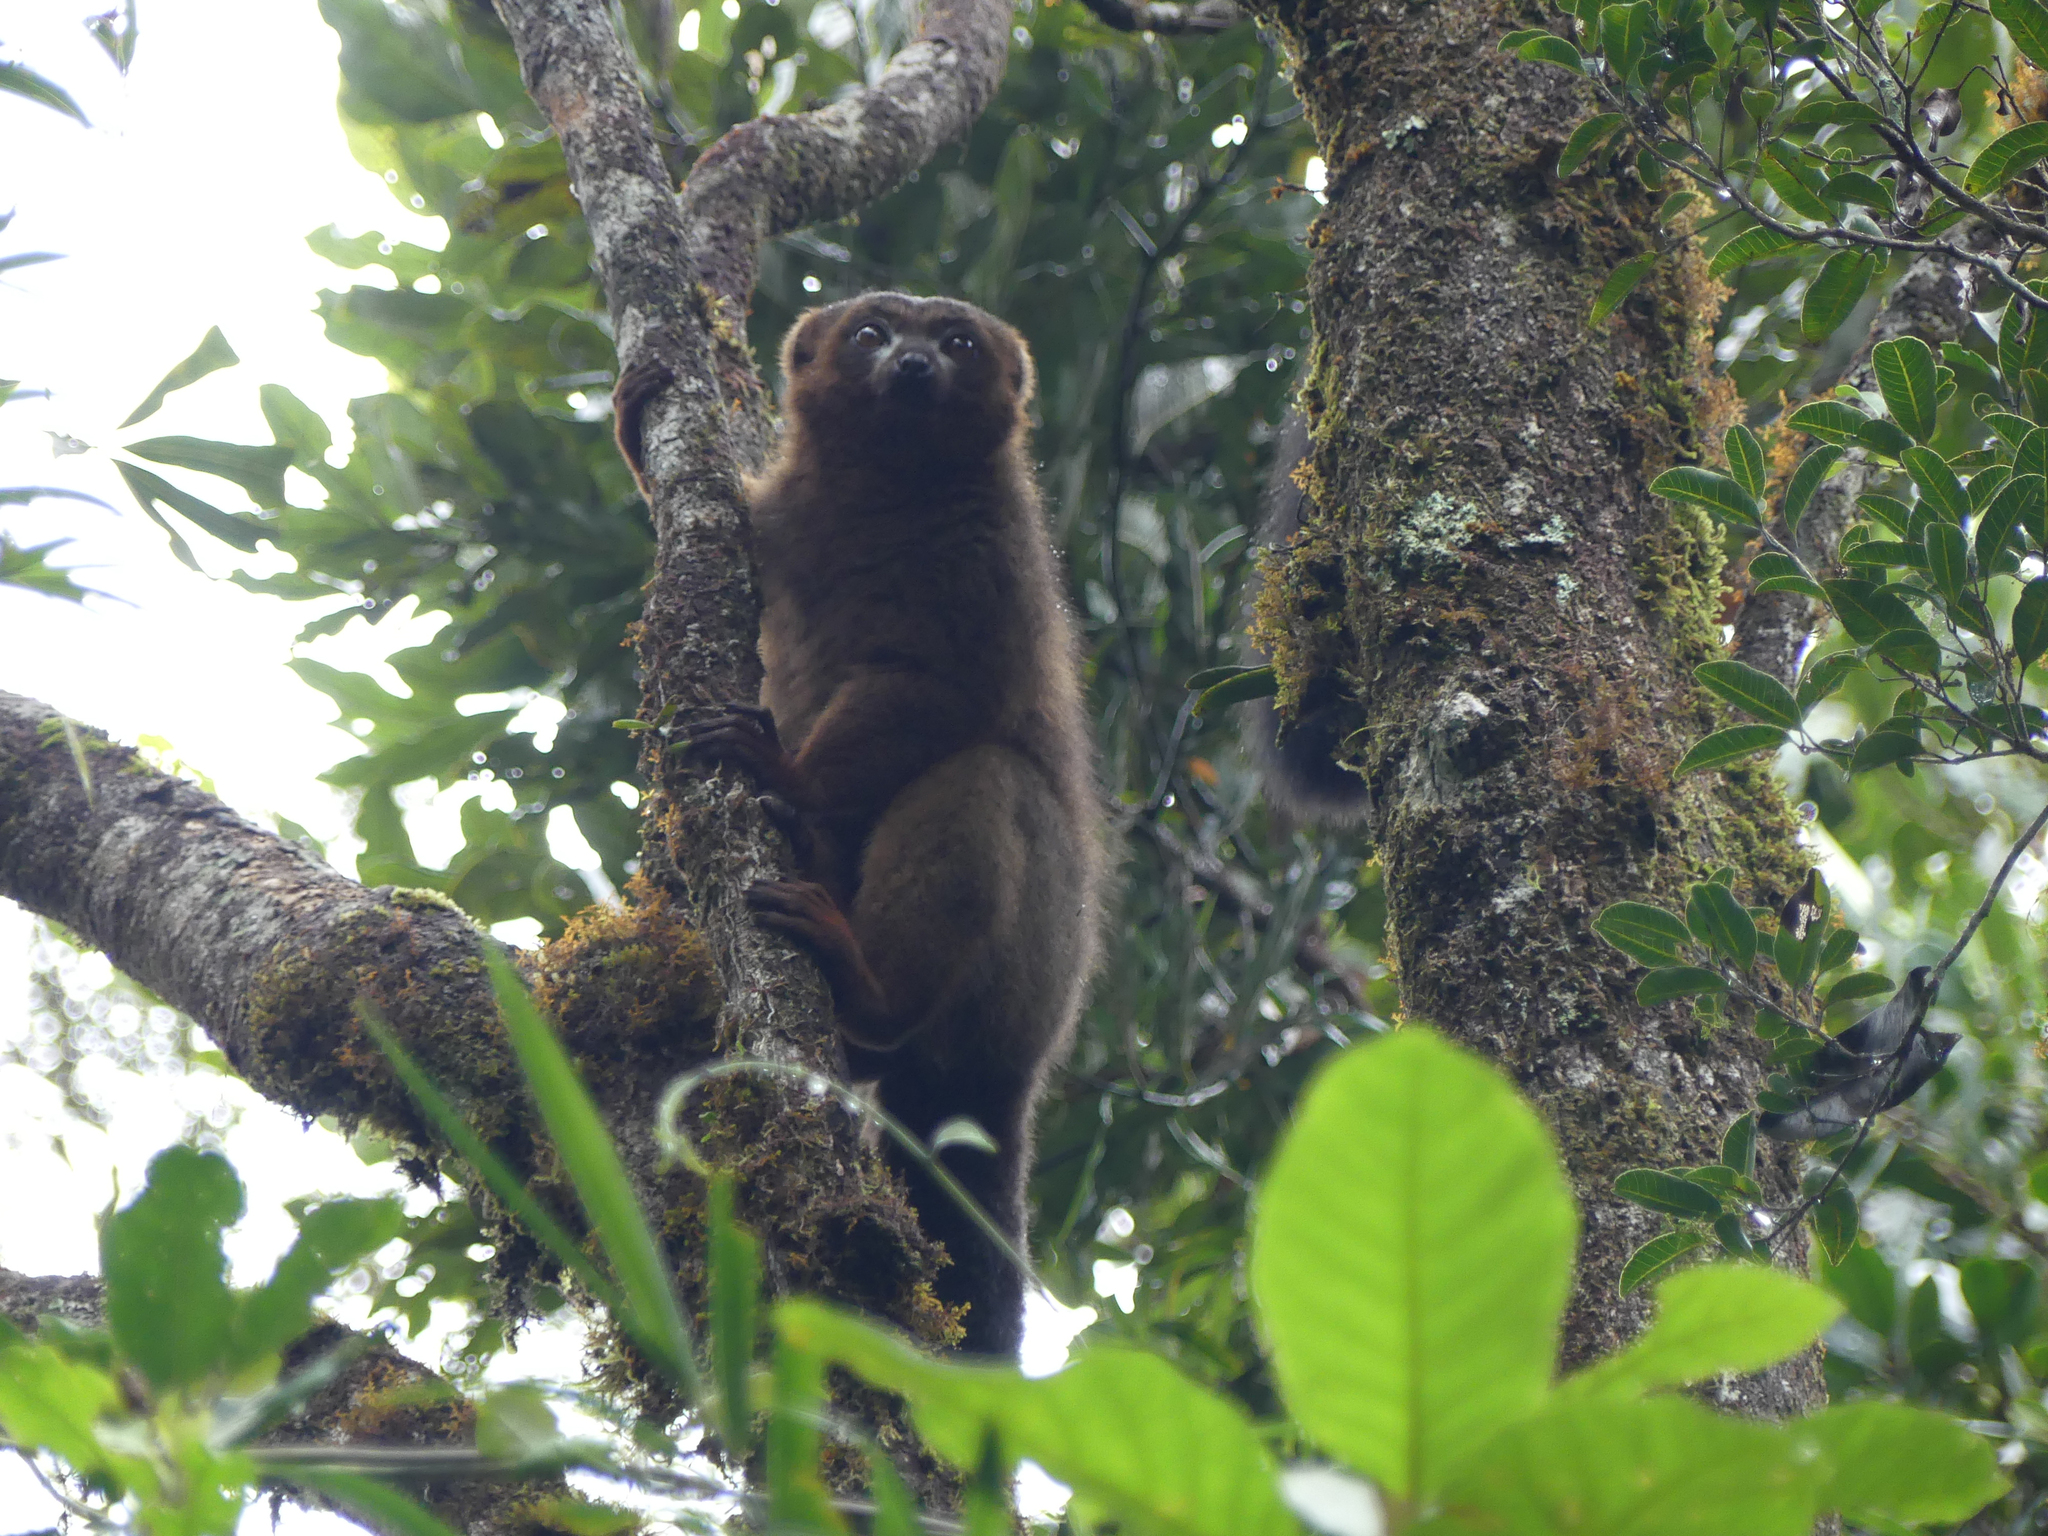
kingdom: Animalia
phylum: Chordata
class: Mammalia
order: Primates
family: Lemuridae
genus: Eulemur
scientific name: Eulemur rubriventer
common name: Red-bellied lemur
